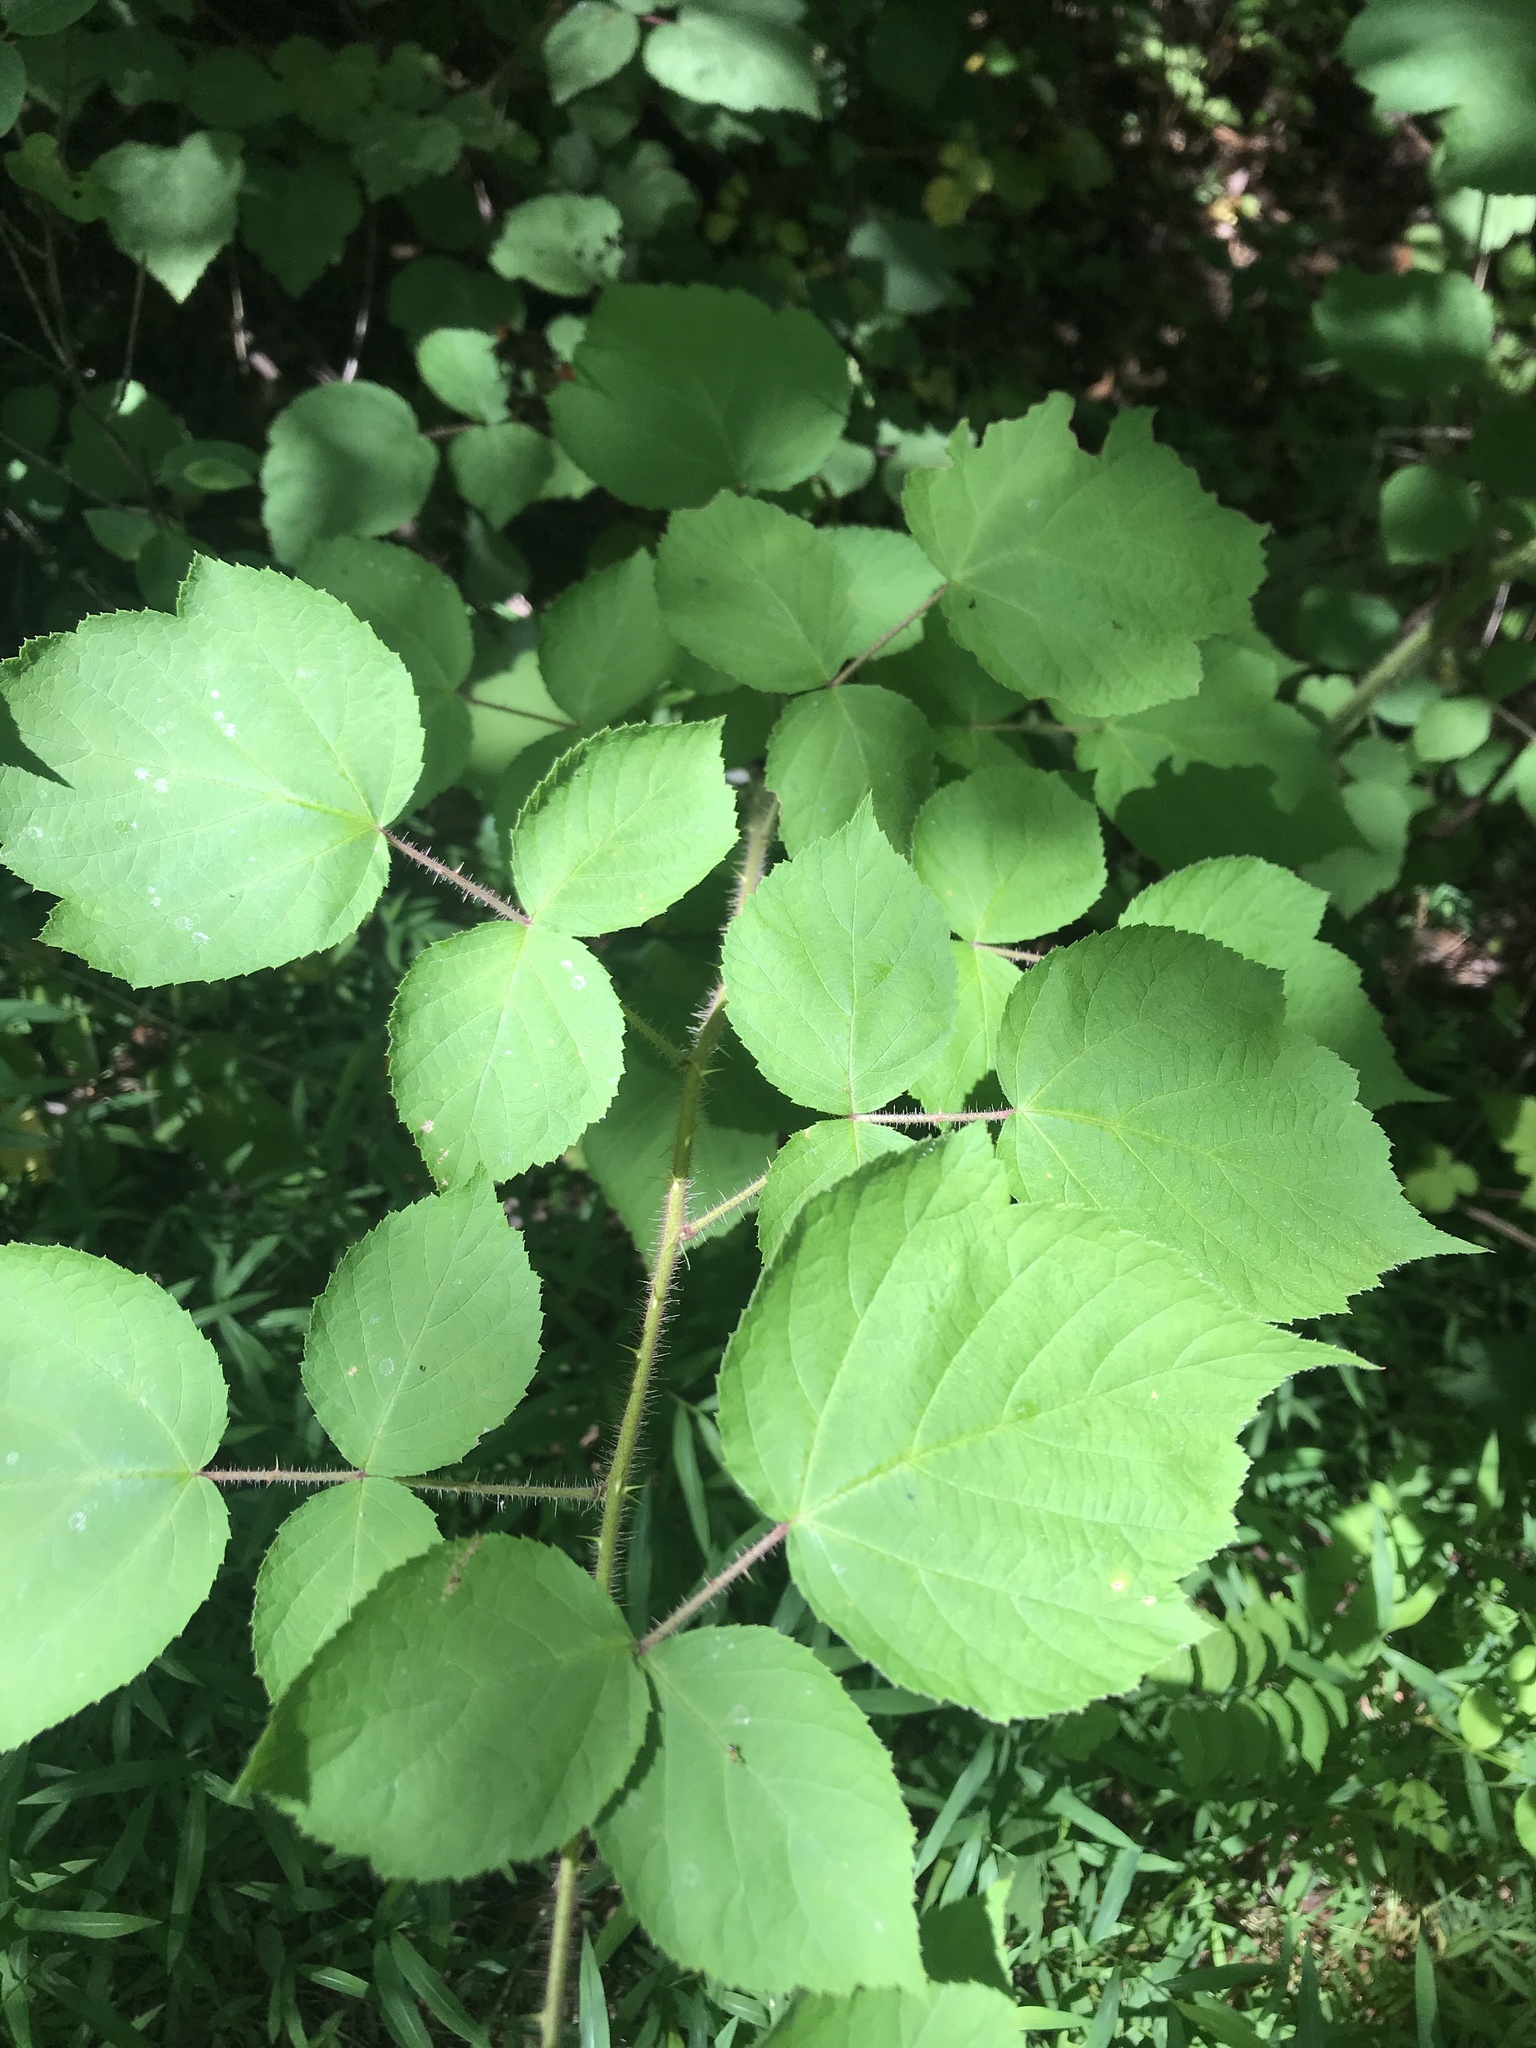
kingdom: Plantae
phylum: Tracheophyta
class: Magnoliopsida
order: Rosales
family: Rosaceae
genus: Rubus
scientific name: Rubus phoenicolasius
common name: Japanese wineberry
